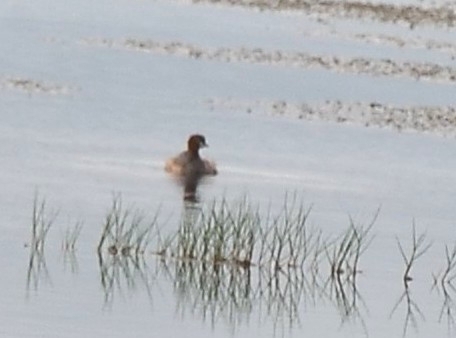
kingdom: Animalia
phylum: Chordata
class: Aves
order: Podicipediformes
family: Podicipedidae
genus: Tachybaptus
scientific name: Tachybaptus ruficollis
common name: Little grebe
